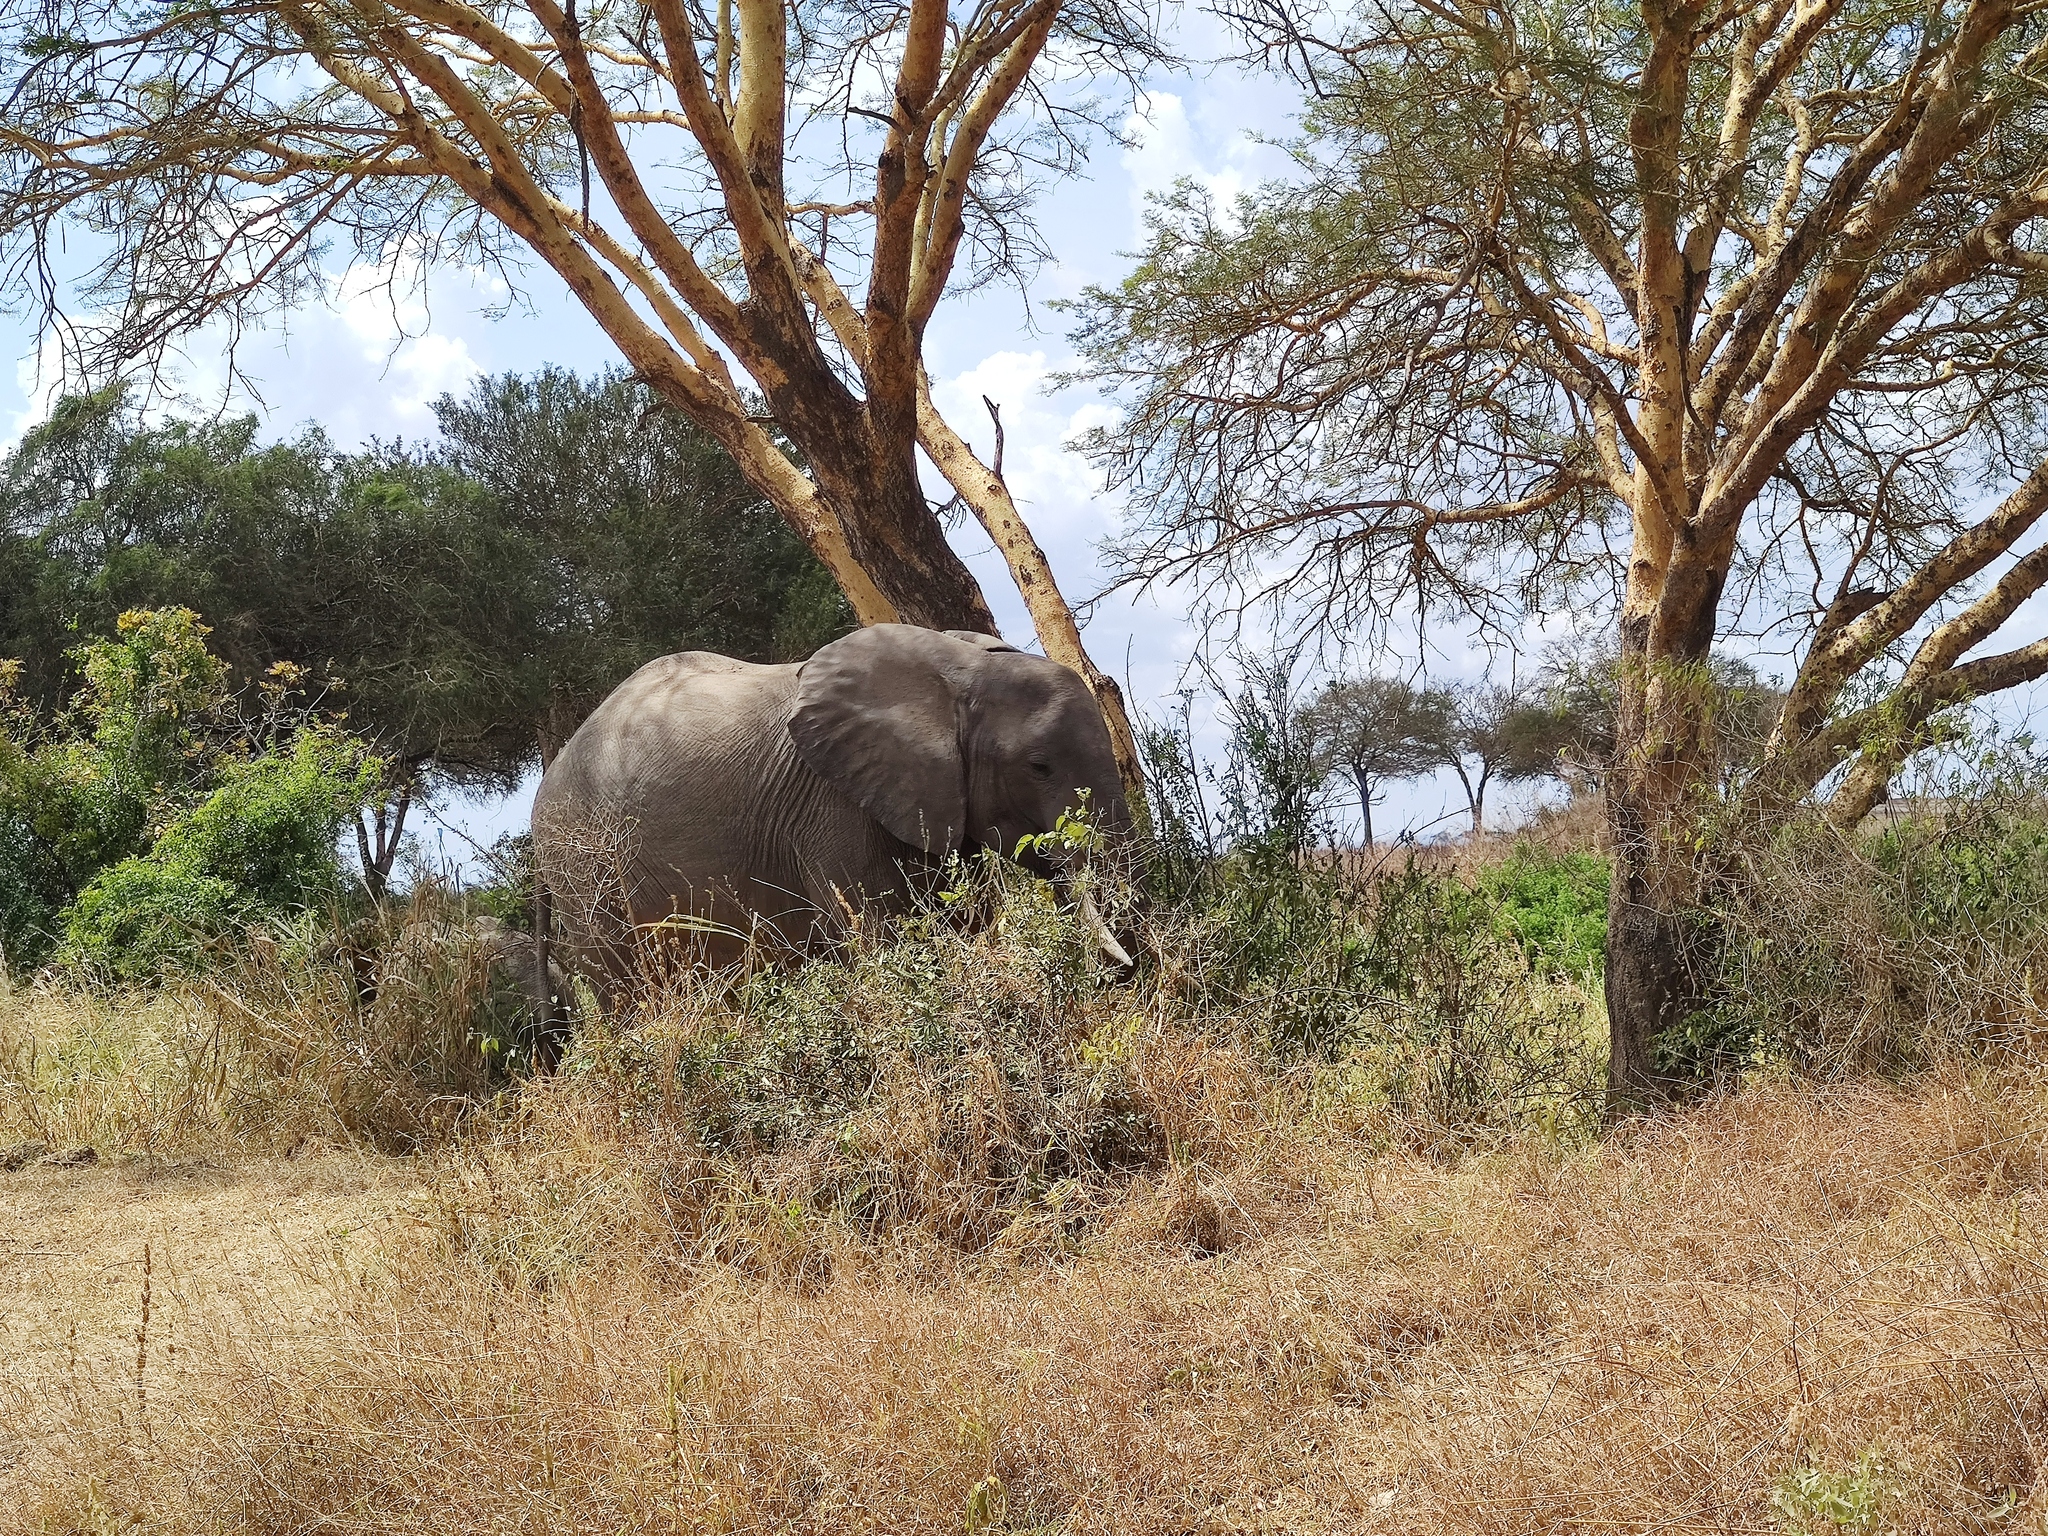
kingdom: Animalia
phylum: Chordata
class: Mammalia
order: Proboscidea
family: Elephantidae
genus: Loxodonta
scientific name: Loxodonta africana
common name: African elephant
